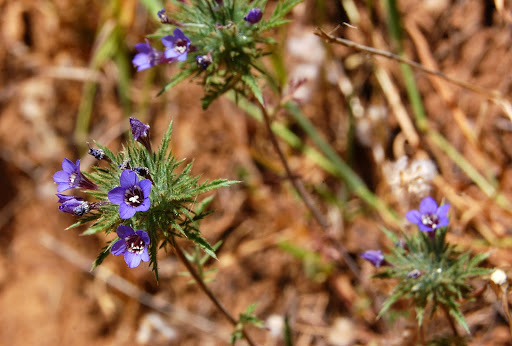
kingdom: Plantae
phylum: Tracheophyta
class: Magnoliopsida
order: Ericales
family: Polemoniaceae
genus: Navarretia
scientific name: Navarretia pubescens
